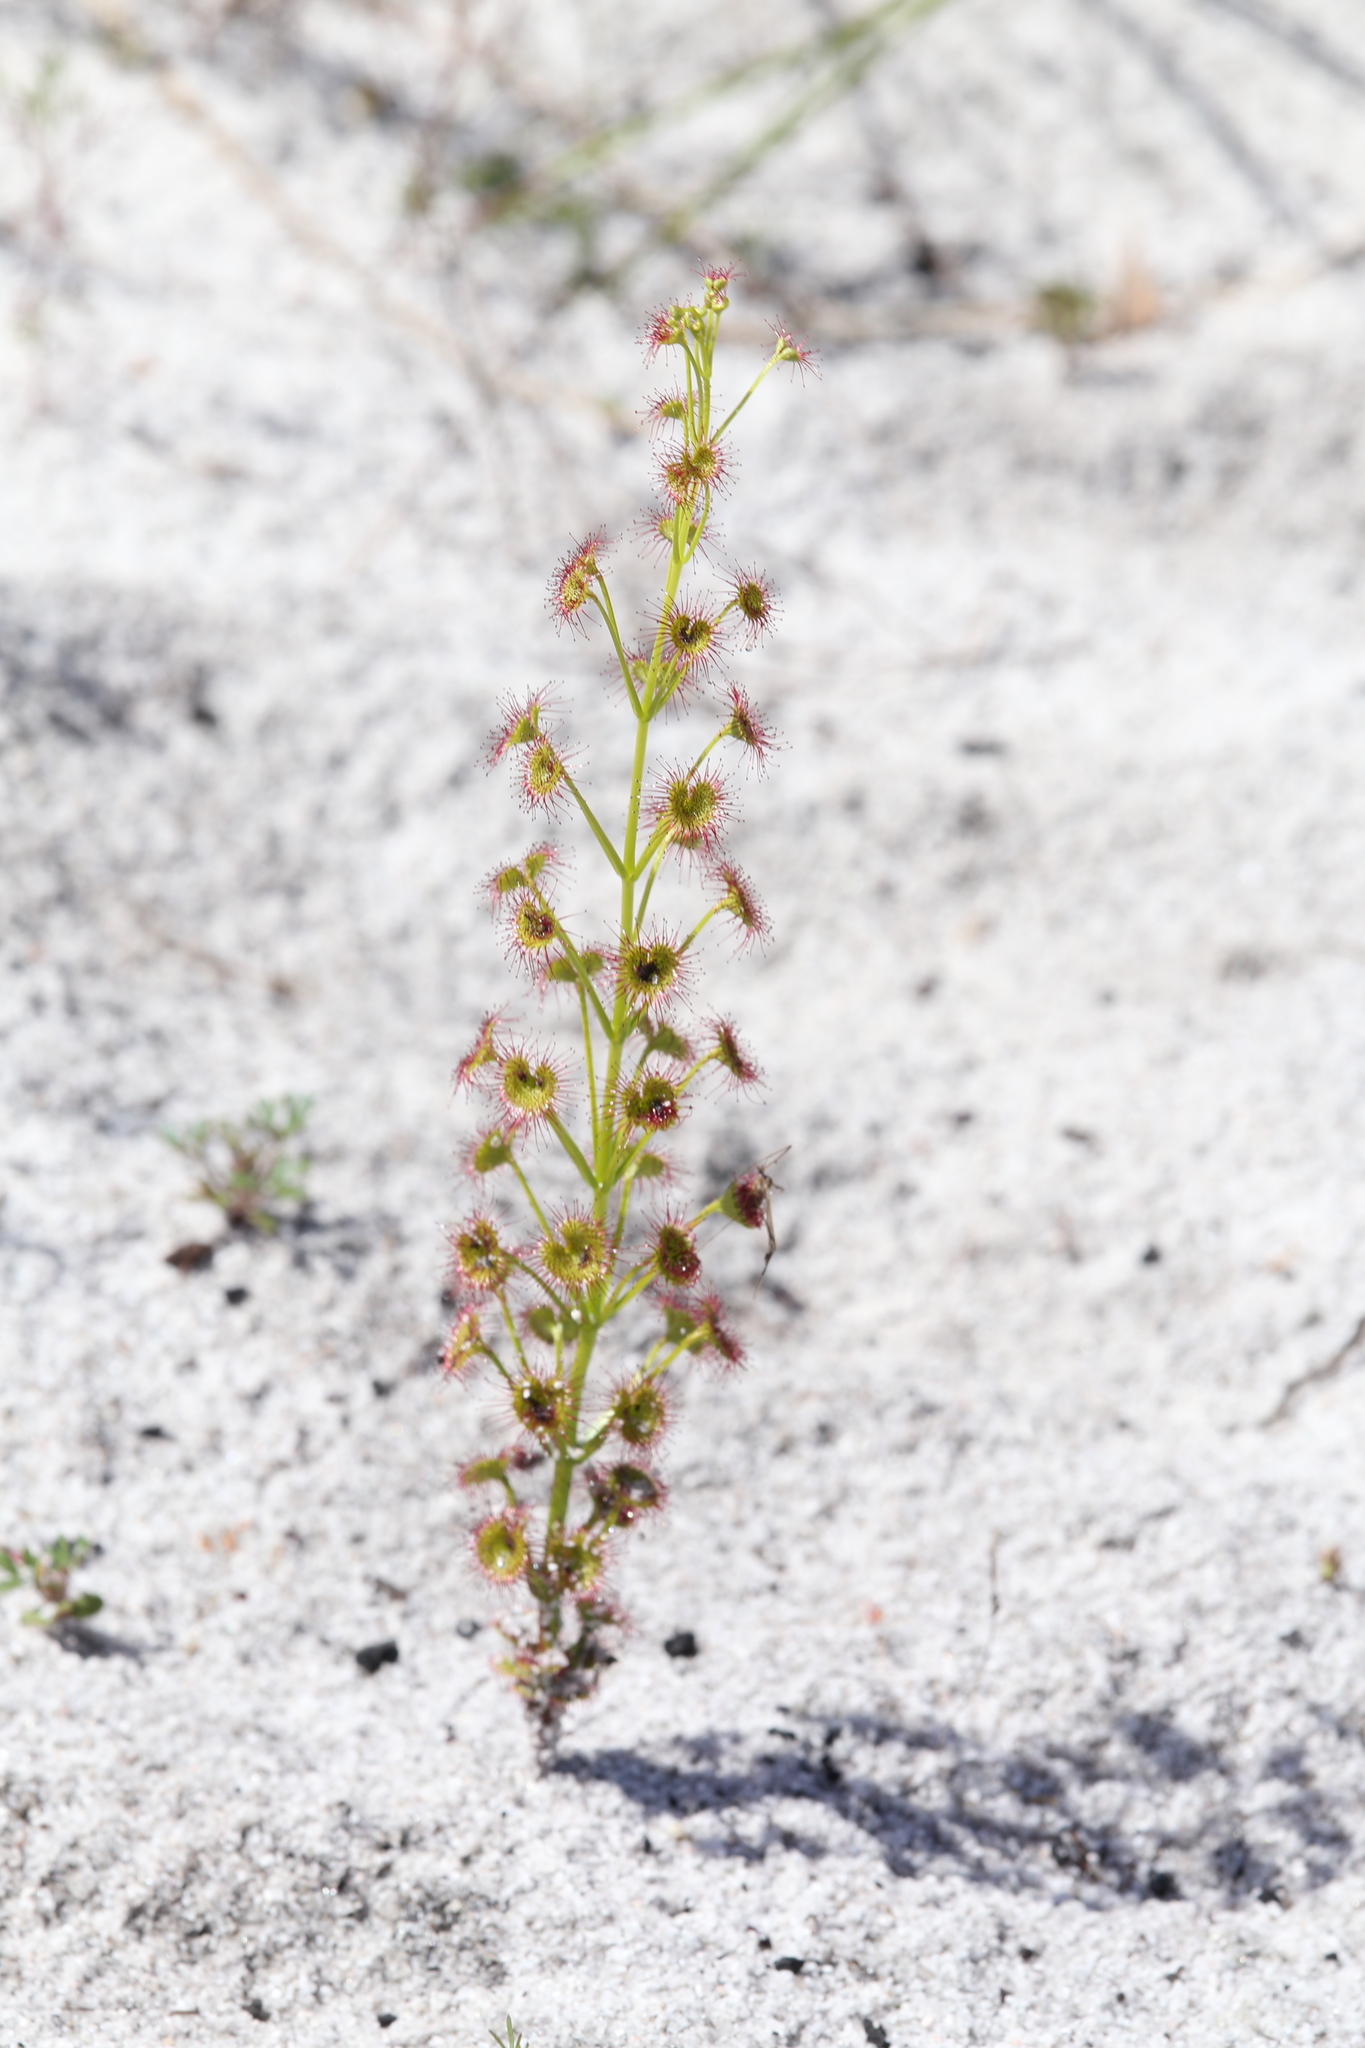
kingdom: Plantae
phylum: Tracheophyta
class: Magnoliopsida
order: Caryophyllales
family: Droseraceae
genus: Drosera
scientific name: Drosera stolonifera
